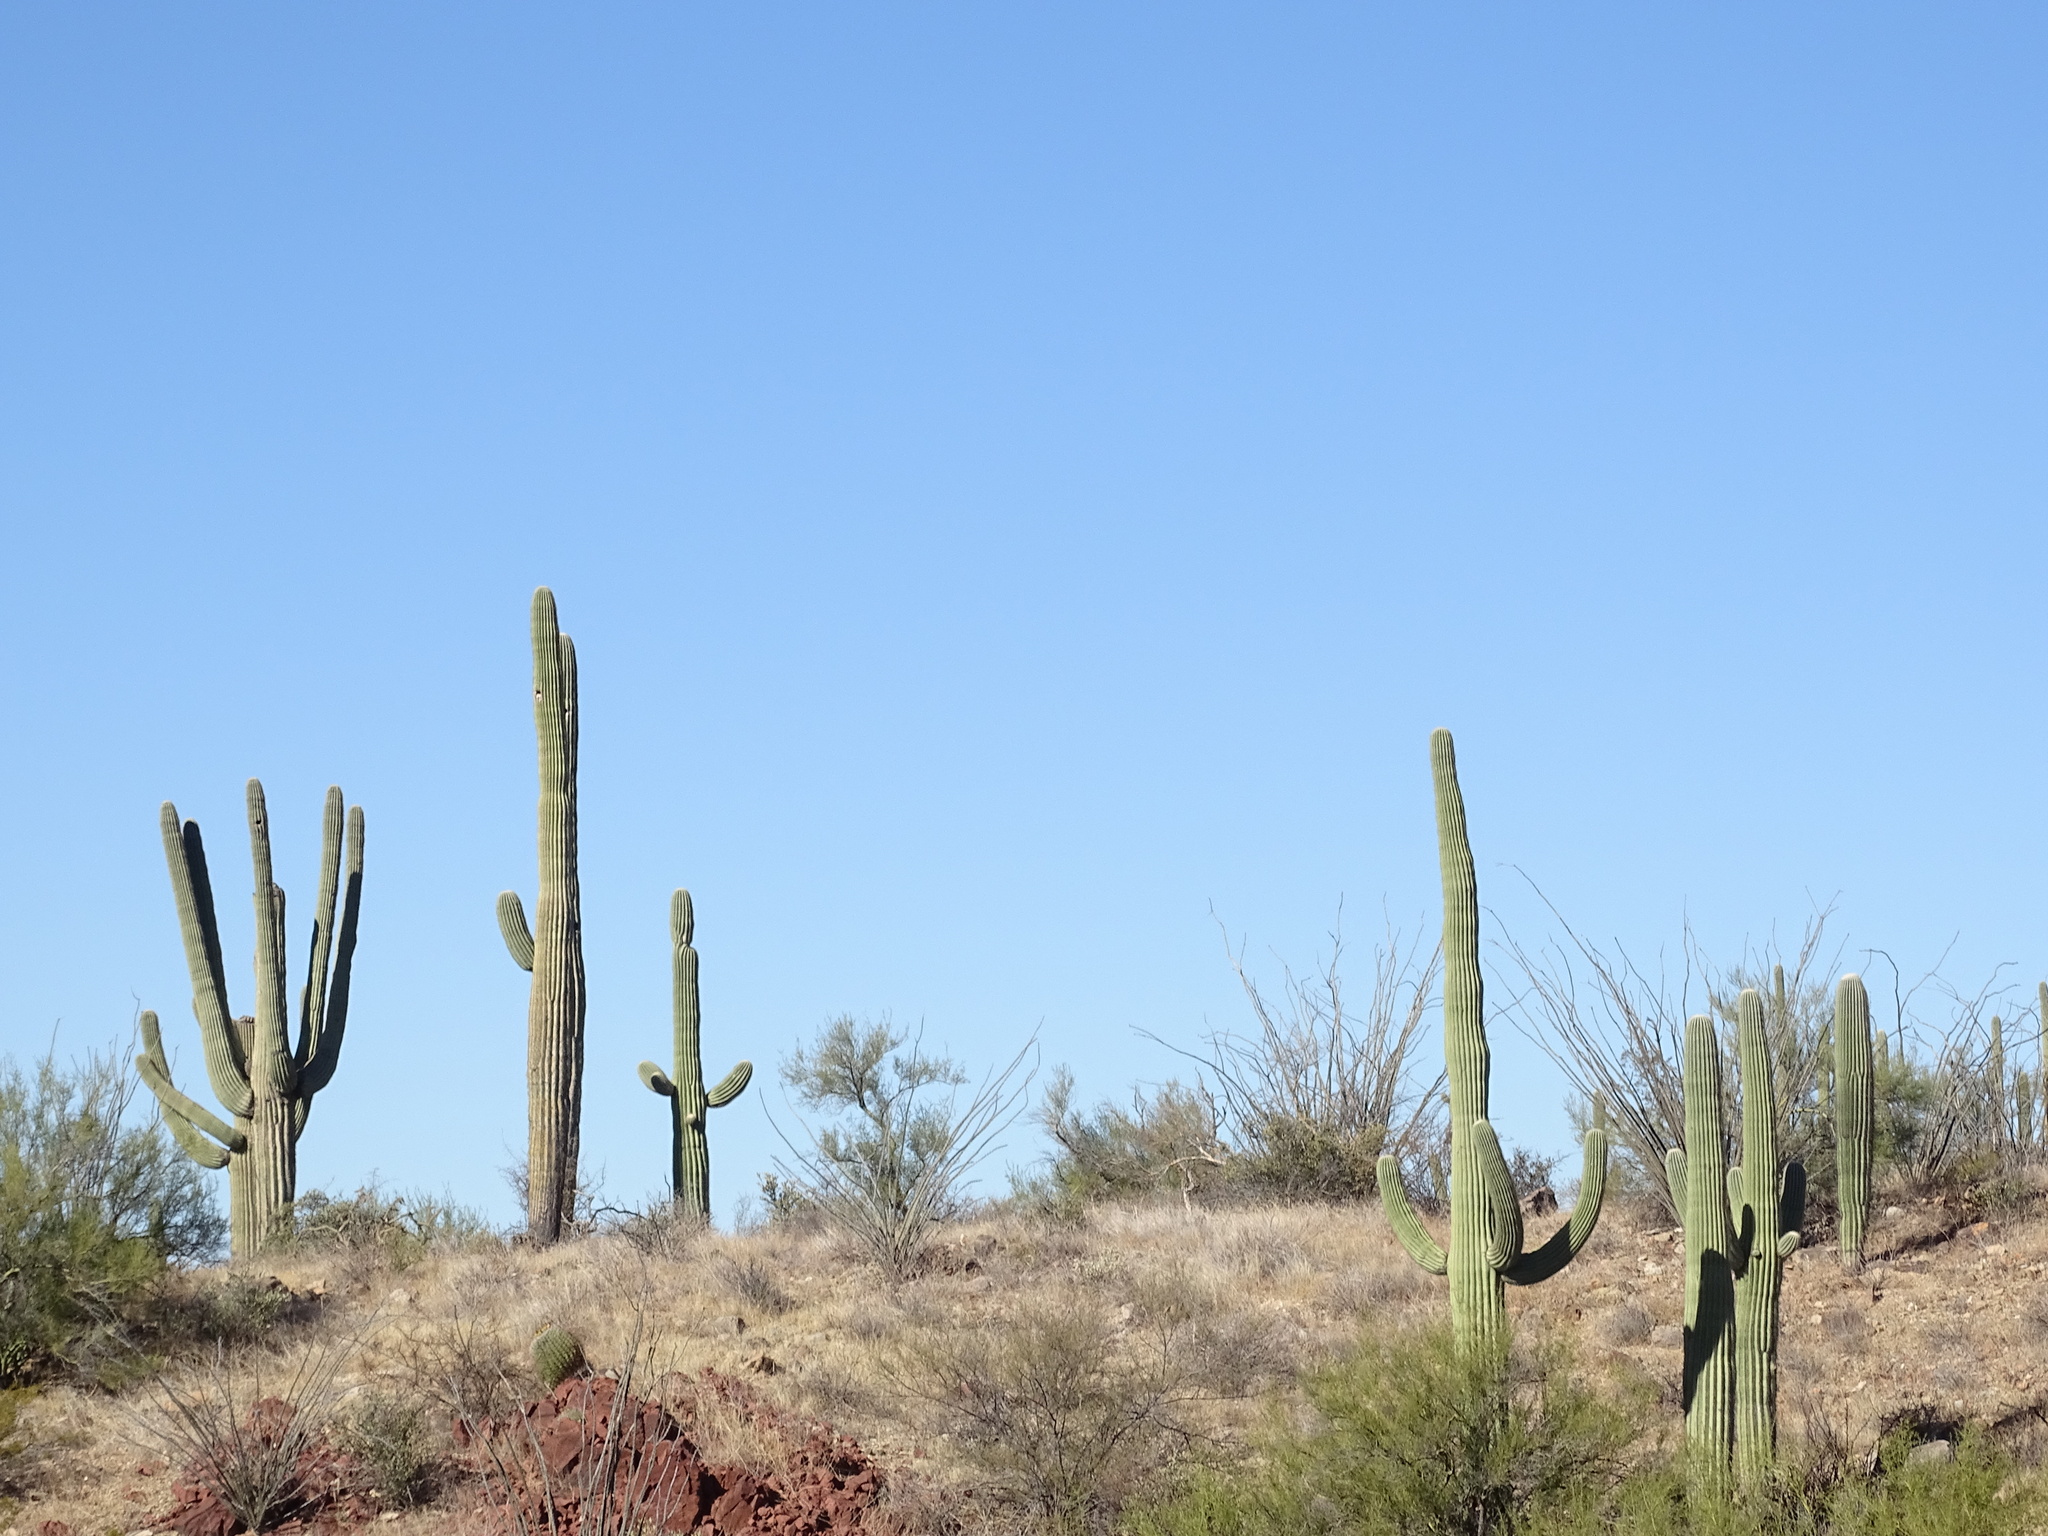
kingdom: Plantae
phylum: Tracheophyta
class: Magnoliopsida
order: Caryophyllales
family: Cactaceae
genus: Carnegiea
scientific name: Carnegiea gigantea
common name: Saguaro
